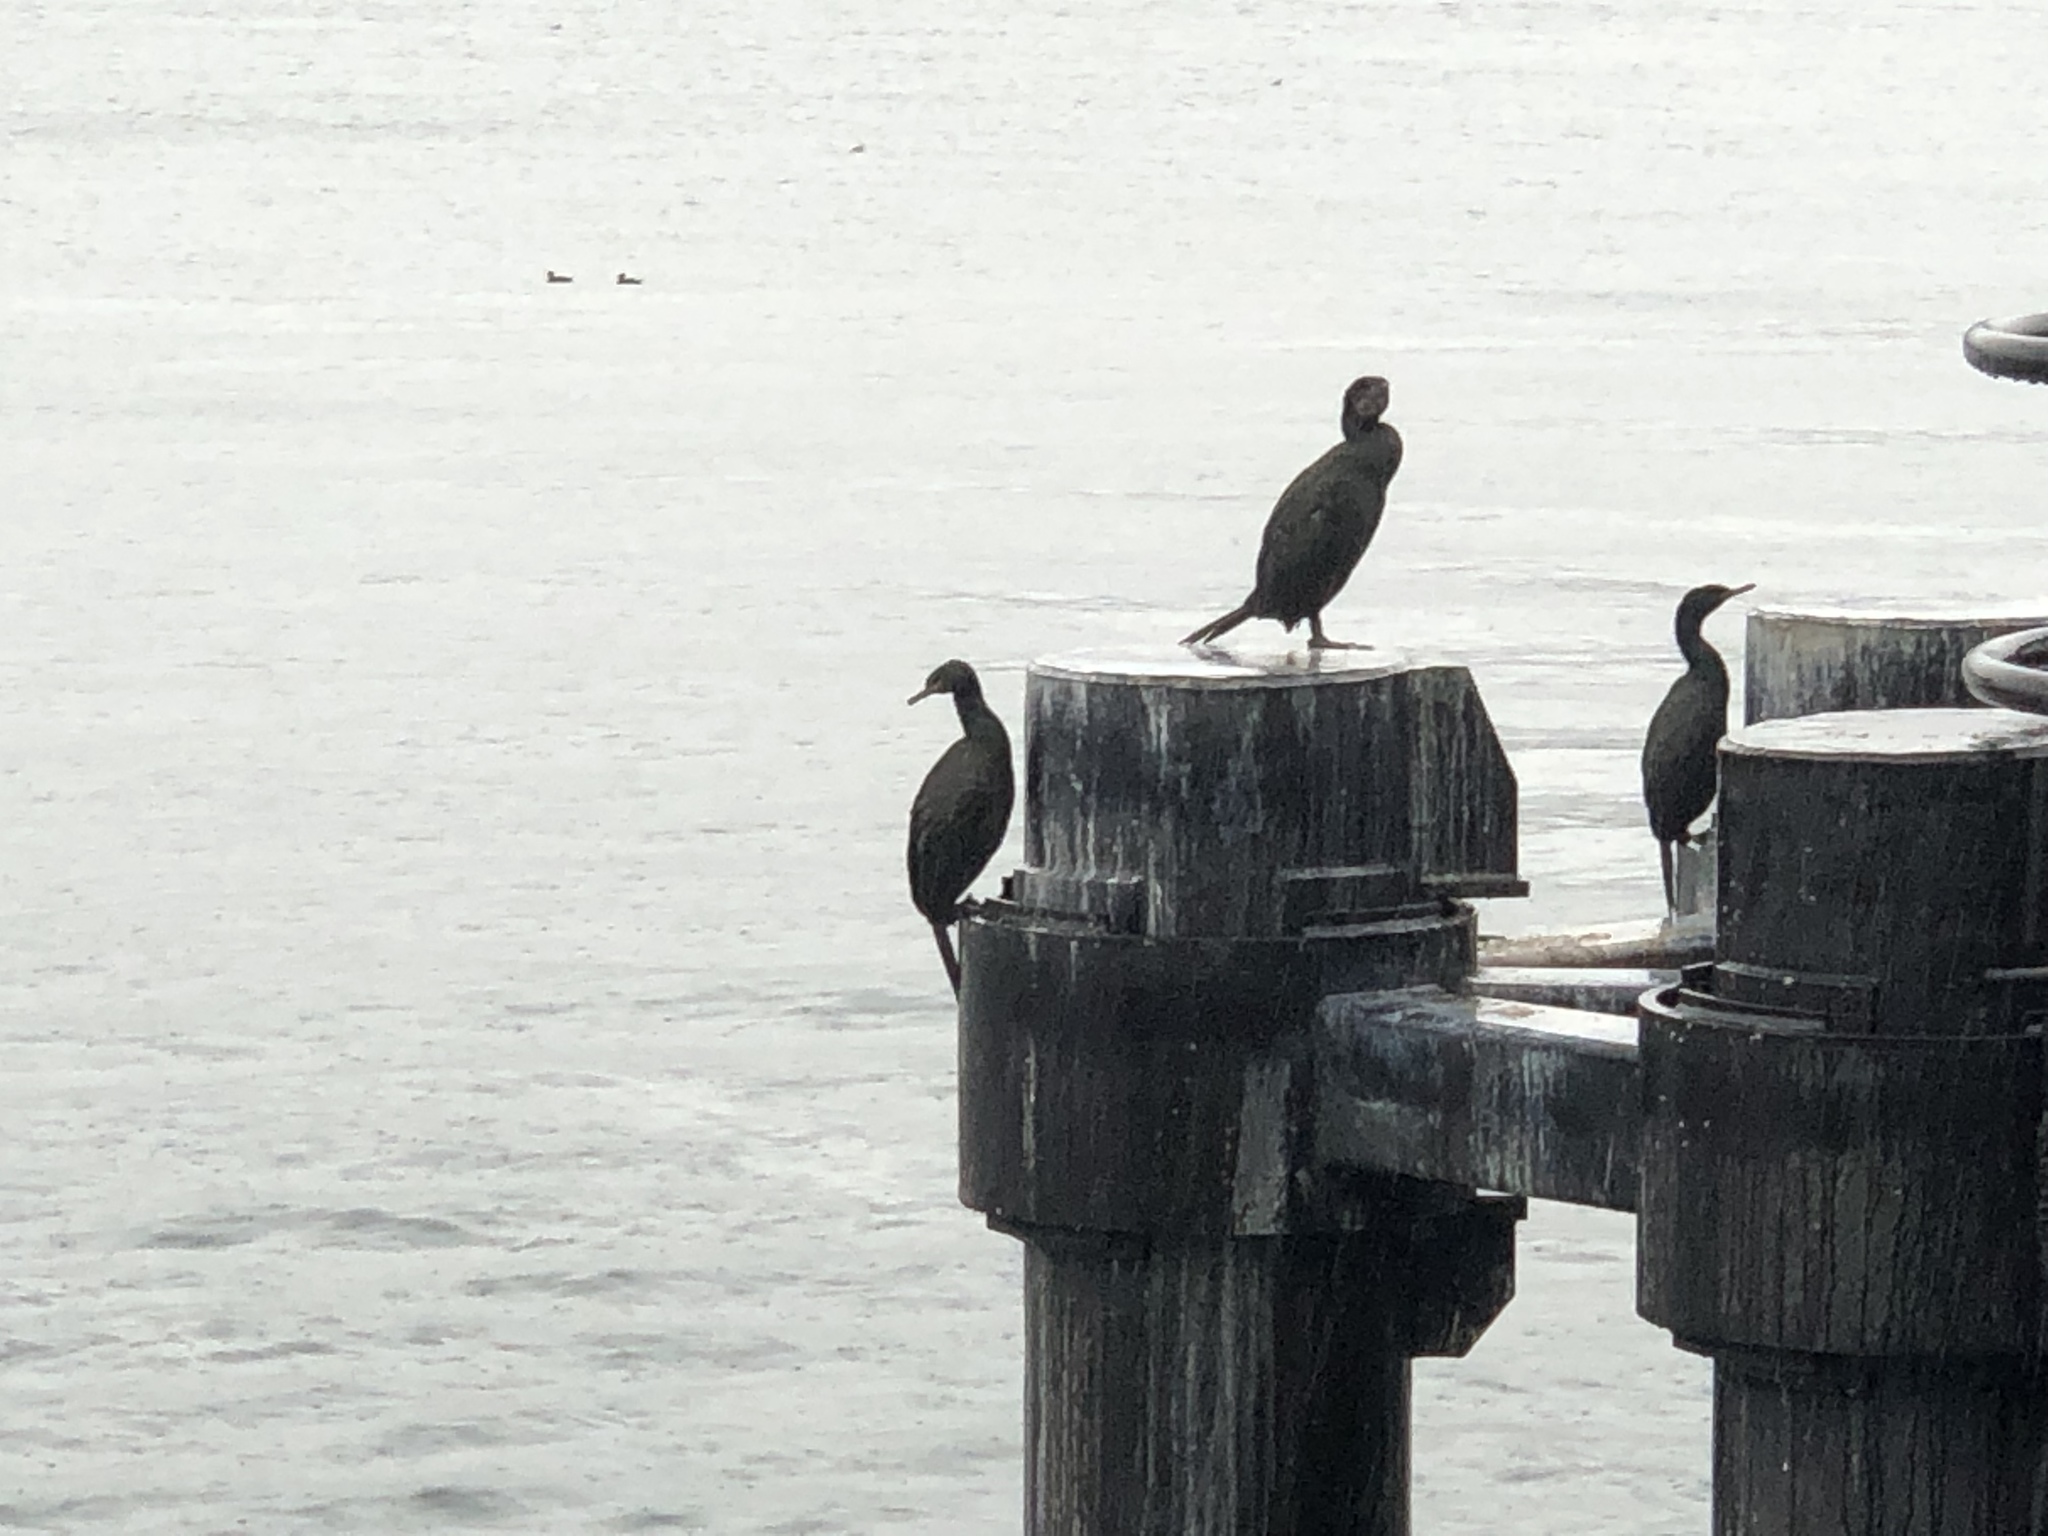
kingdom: Animalia
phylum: Chordata
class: Aves
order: Suliformes
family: Phalacrocoracidae
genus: Phalacrocorax
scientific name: Phalacrocorax auritus
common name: Double-crested cormorant
